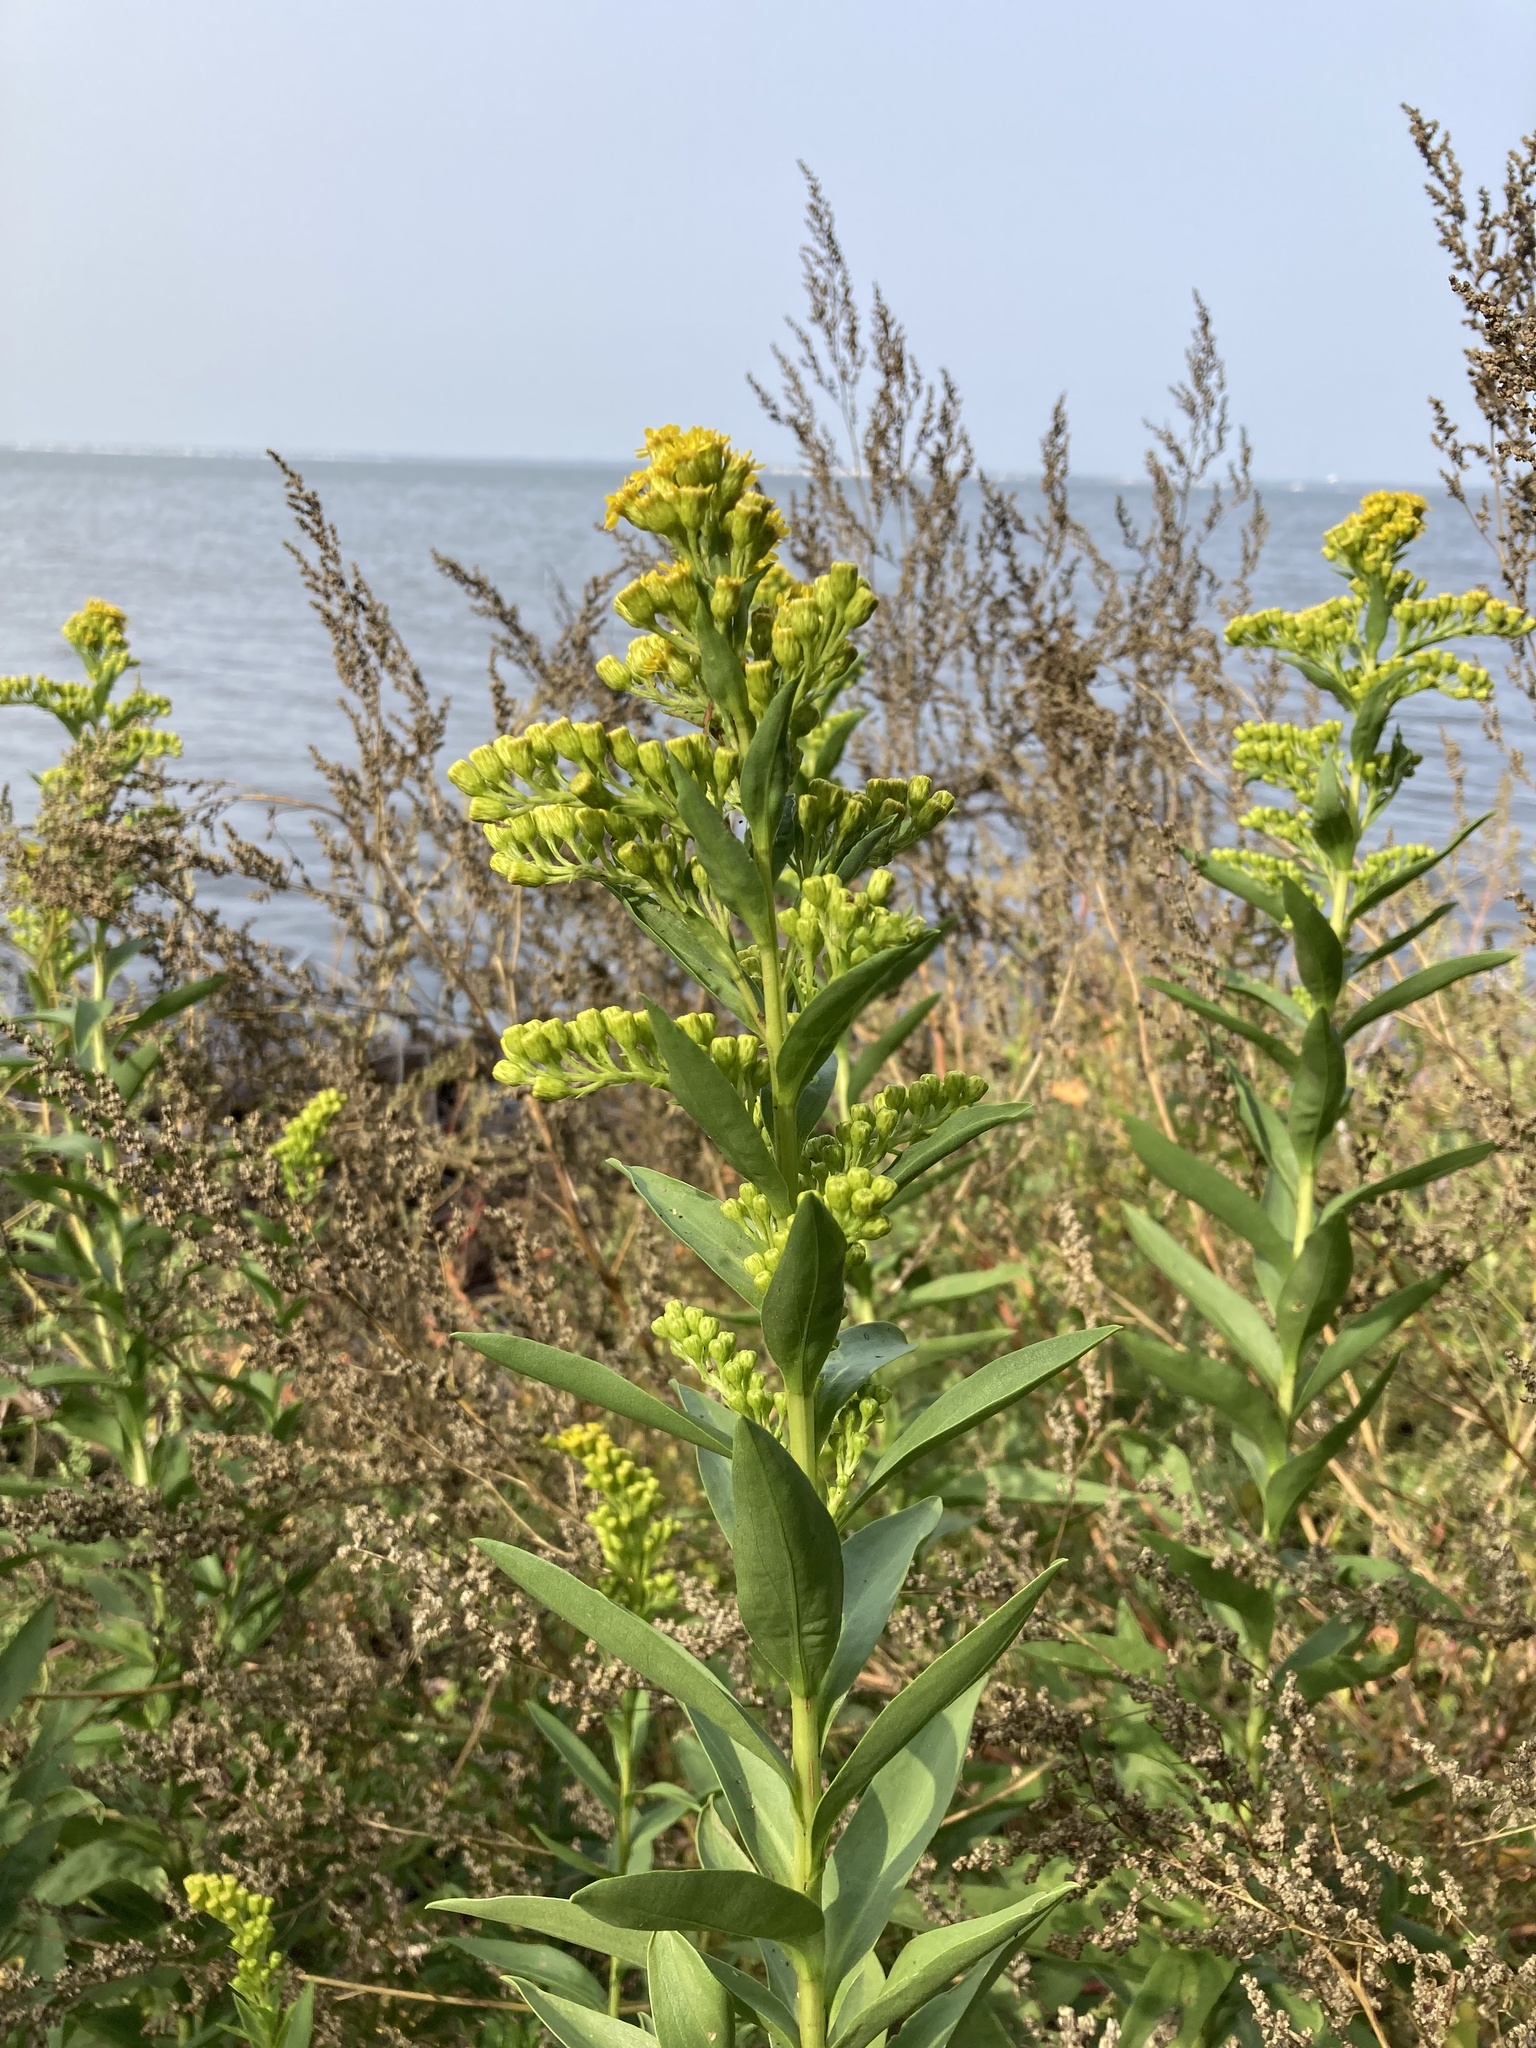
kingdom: Plantae
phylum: Tracheophyta
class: Magnoliopsida
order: Asterales
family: Asteraceae
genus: Solidago
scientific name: Solidago sempervirens
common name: Salt-marsh goldenrod
